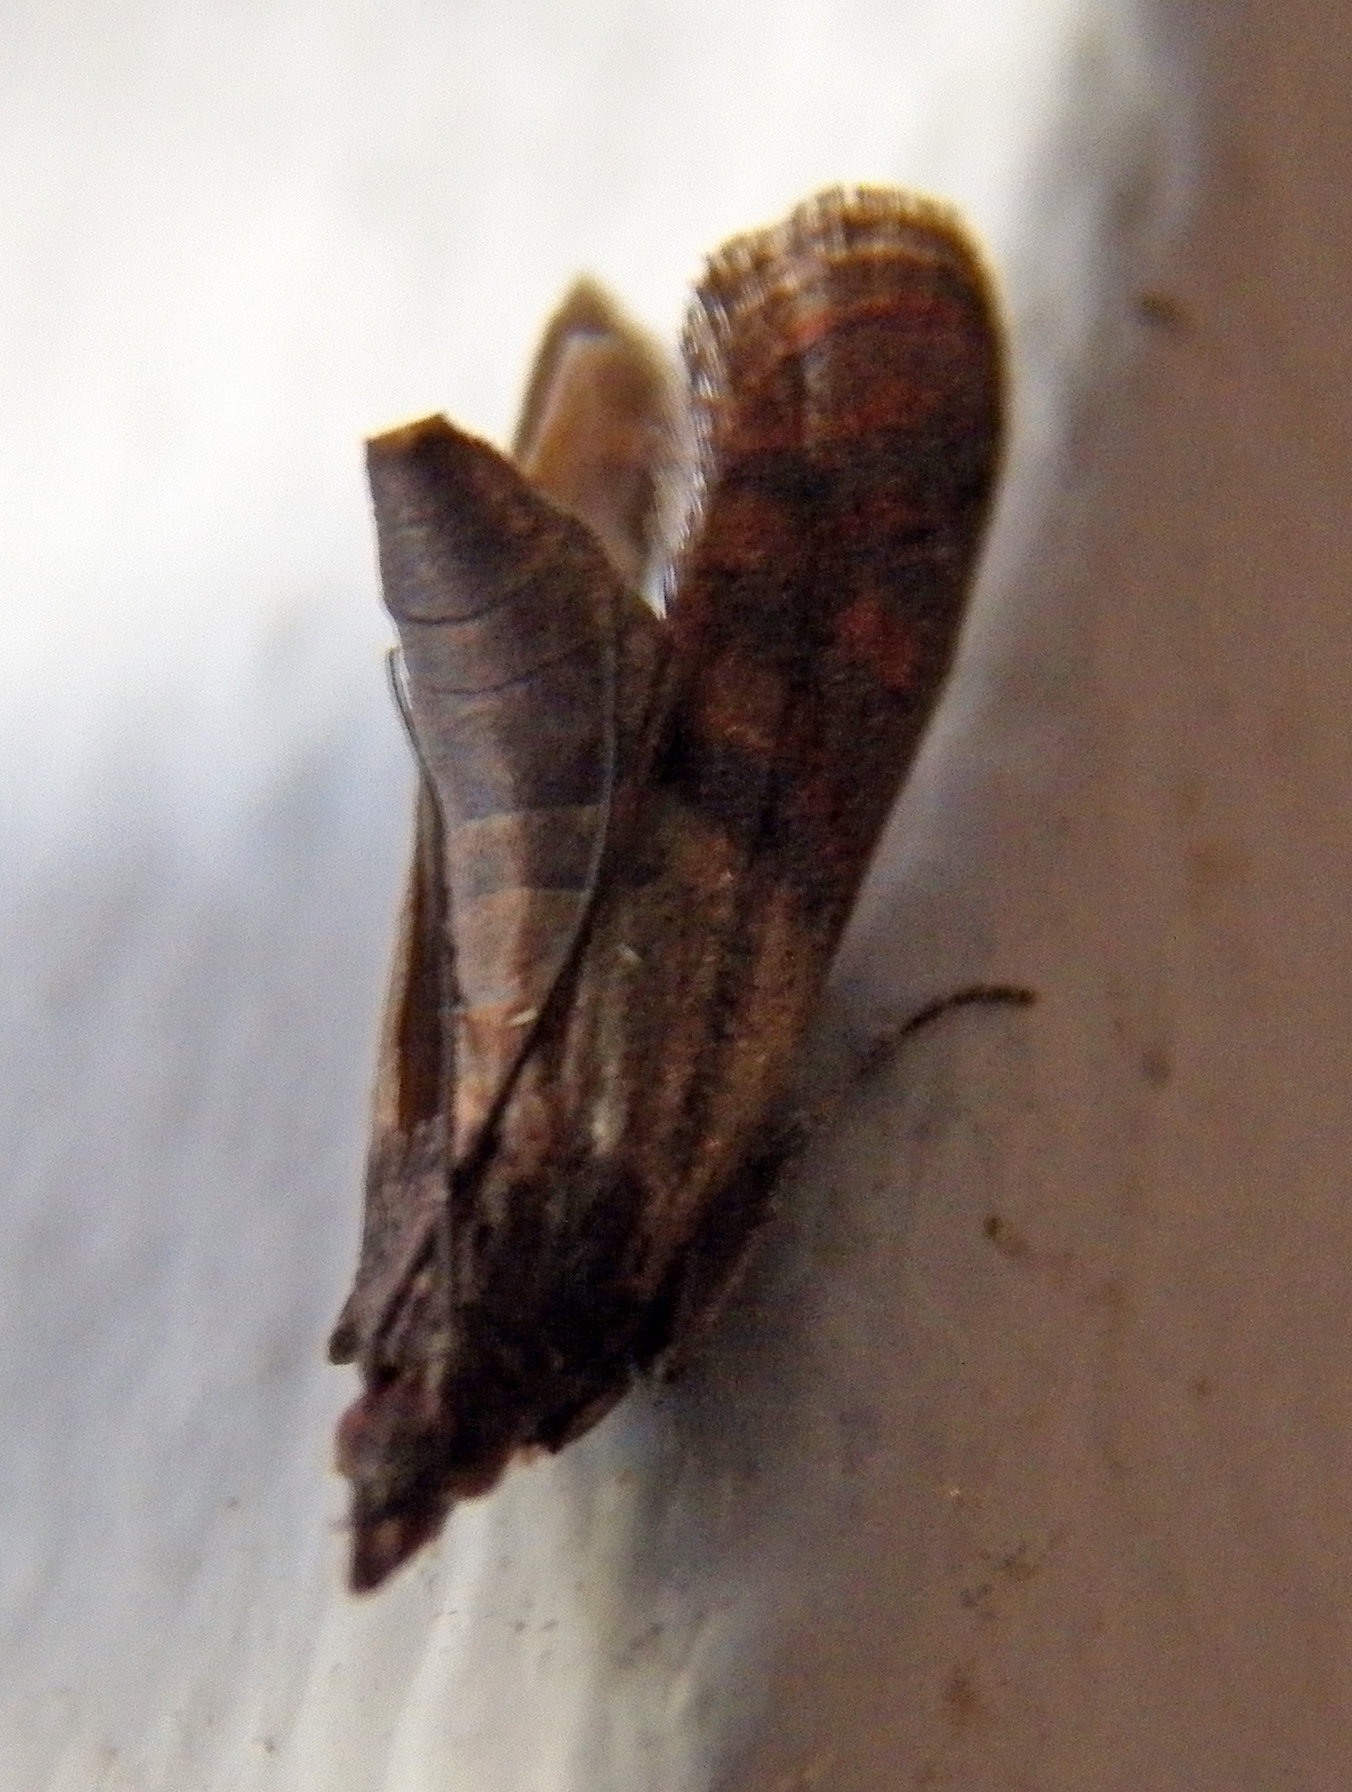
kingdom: Animalia
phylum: Arthropoda
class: Insecta
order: Lepidoptera
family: Pyralidae
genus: Plodia
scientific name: Plodia interpunctella
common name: Indian meal moth
